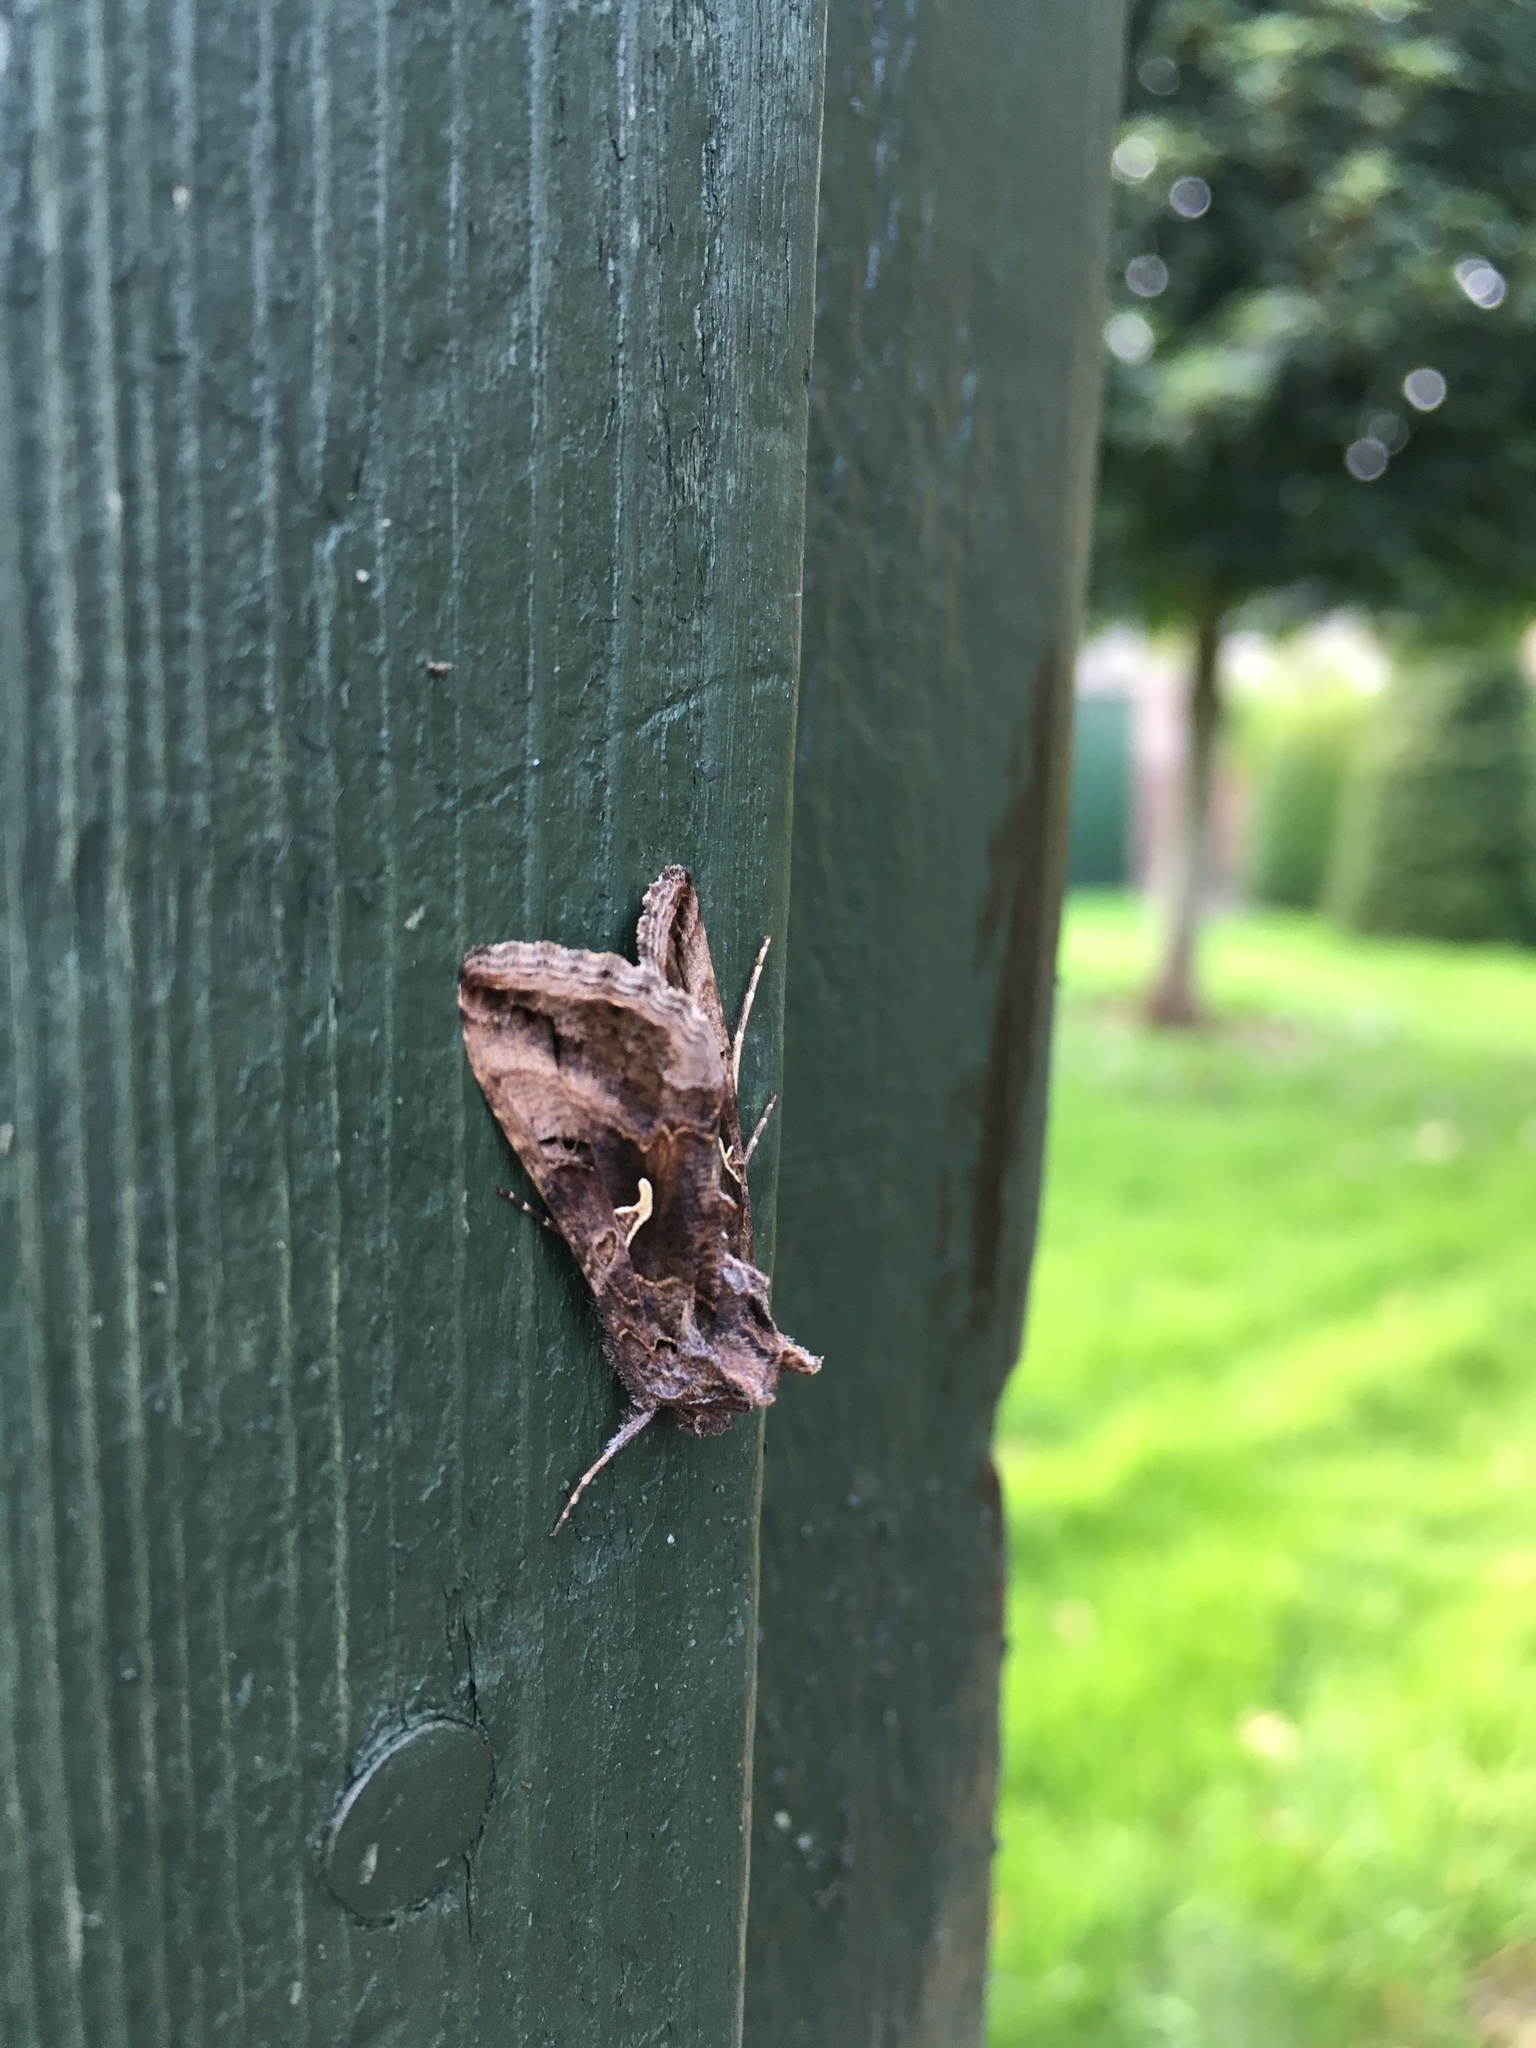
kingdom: Animalia
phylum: Arthropoda
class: Insecta
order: Lepidoptera
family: Noctuidae
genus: Autographa
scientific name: Autographa gamma
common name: Silver y
